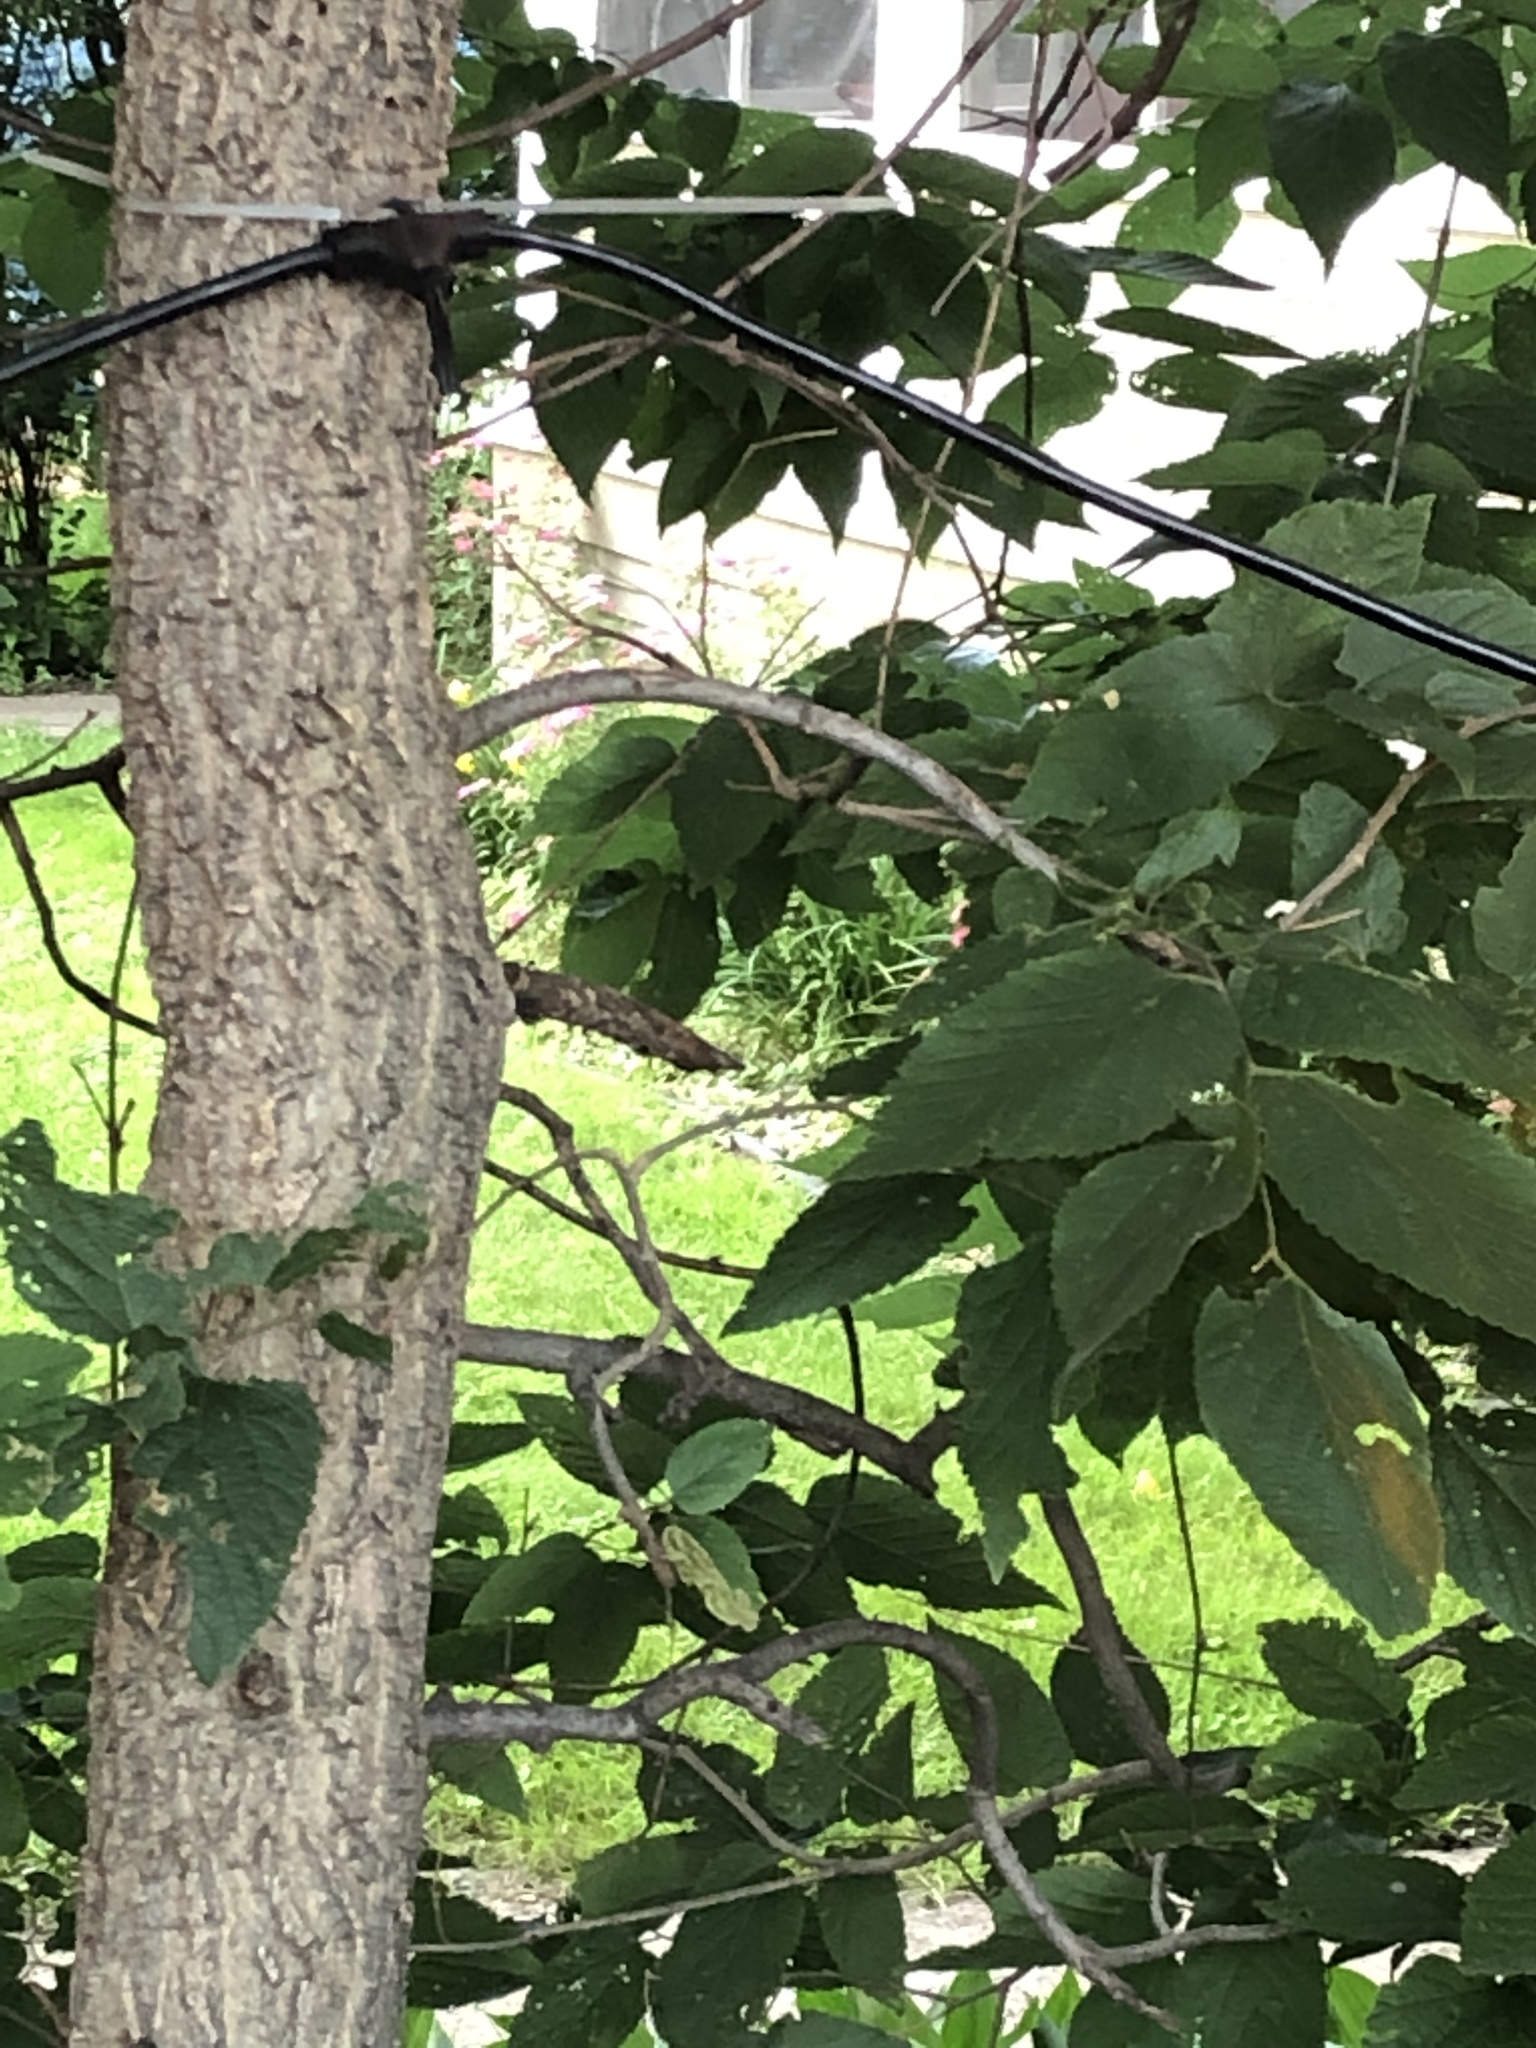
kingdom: Plantae
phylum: Tracheophyta
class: Magnoliopsida
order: Rosales
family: Cannabaceae
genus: Celtis
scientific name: Celtis occidentalis
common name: Common hackberry
